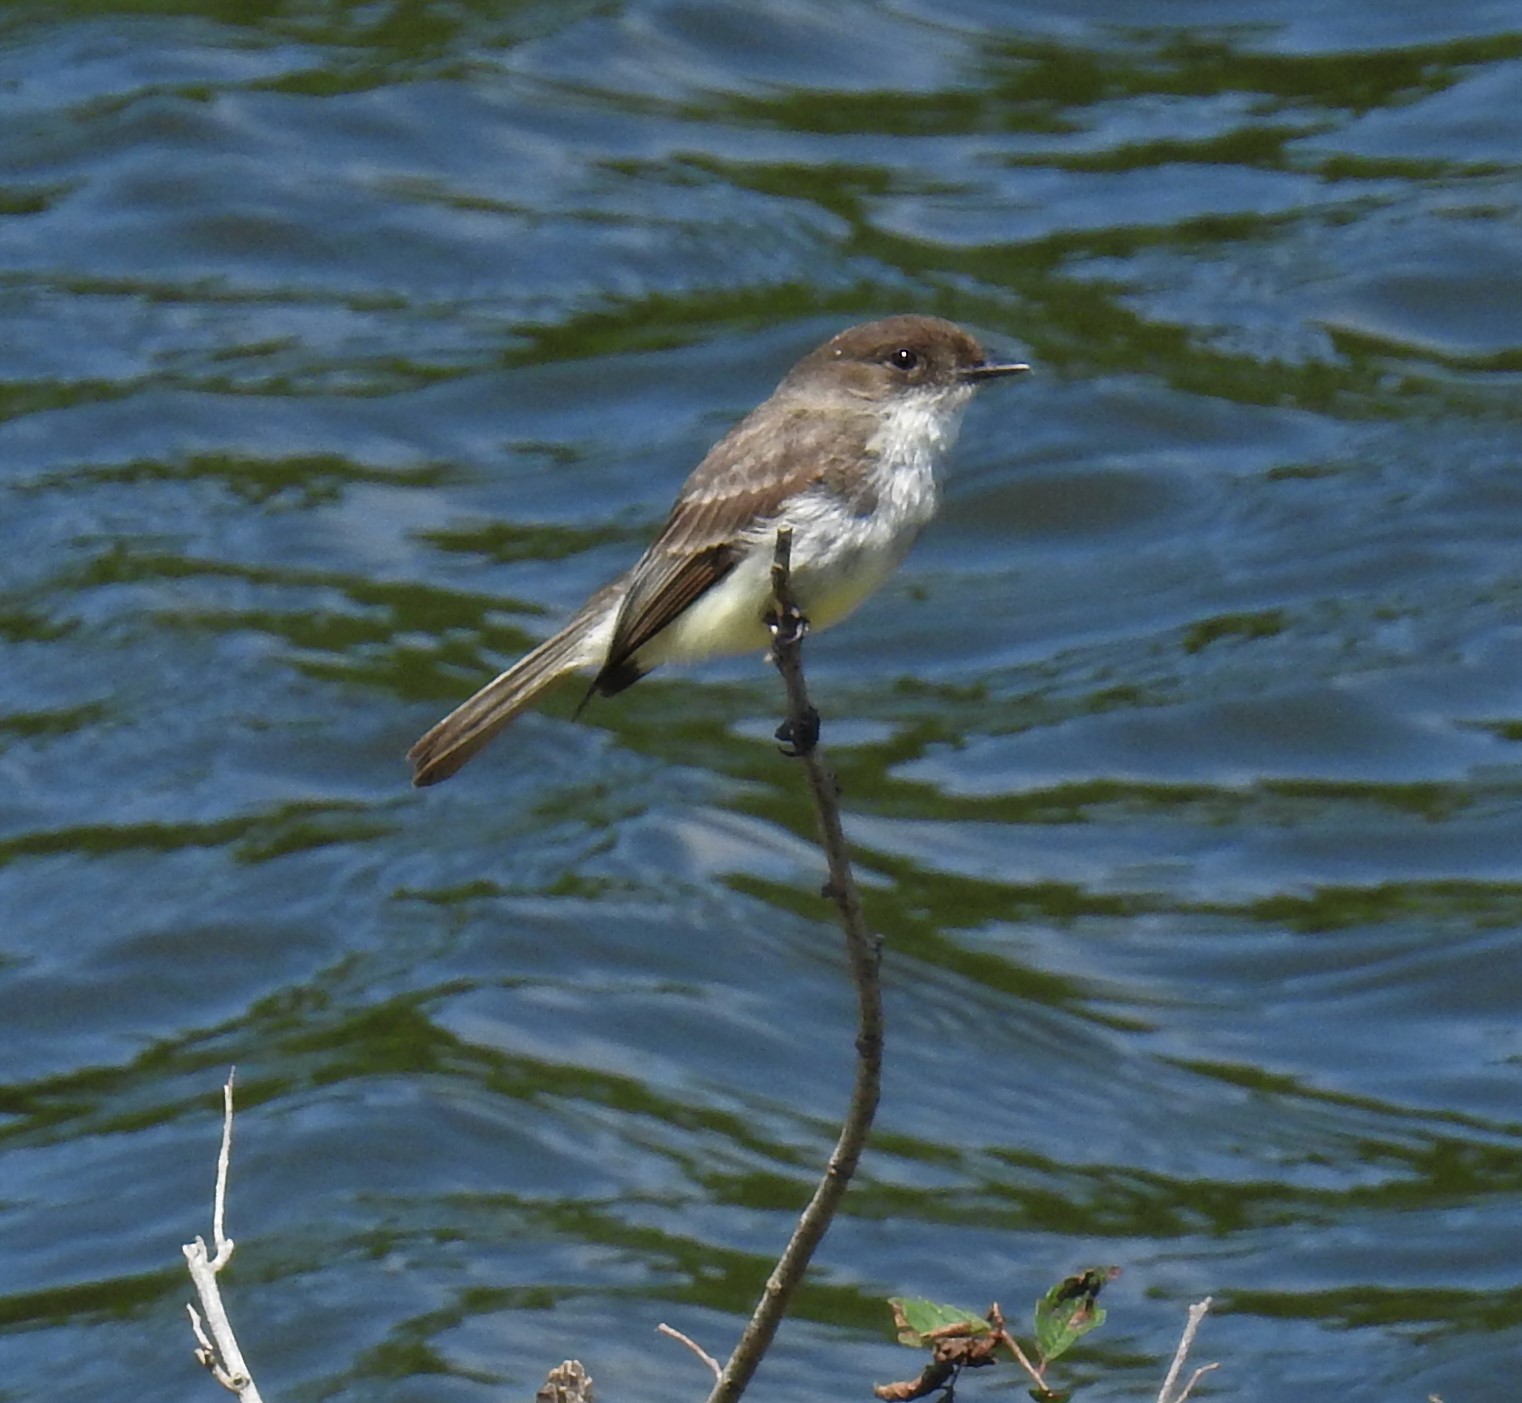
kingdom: Animalia
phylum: Chordata
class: Aves
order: Passeriformes
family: Tyrannidae
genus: Sayornis
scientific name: Sayornis phoebe
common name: Eastern phoebe
